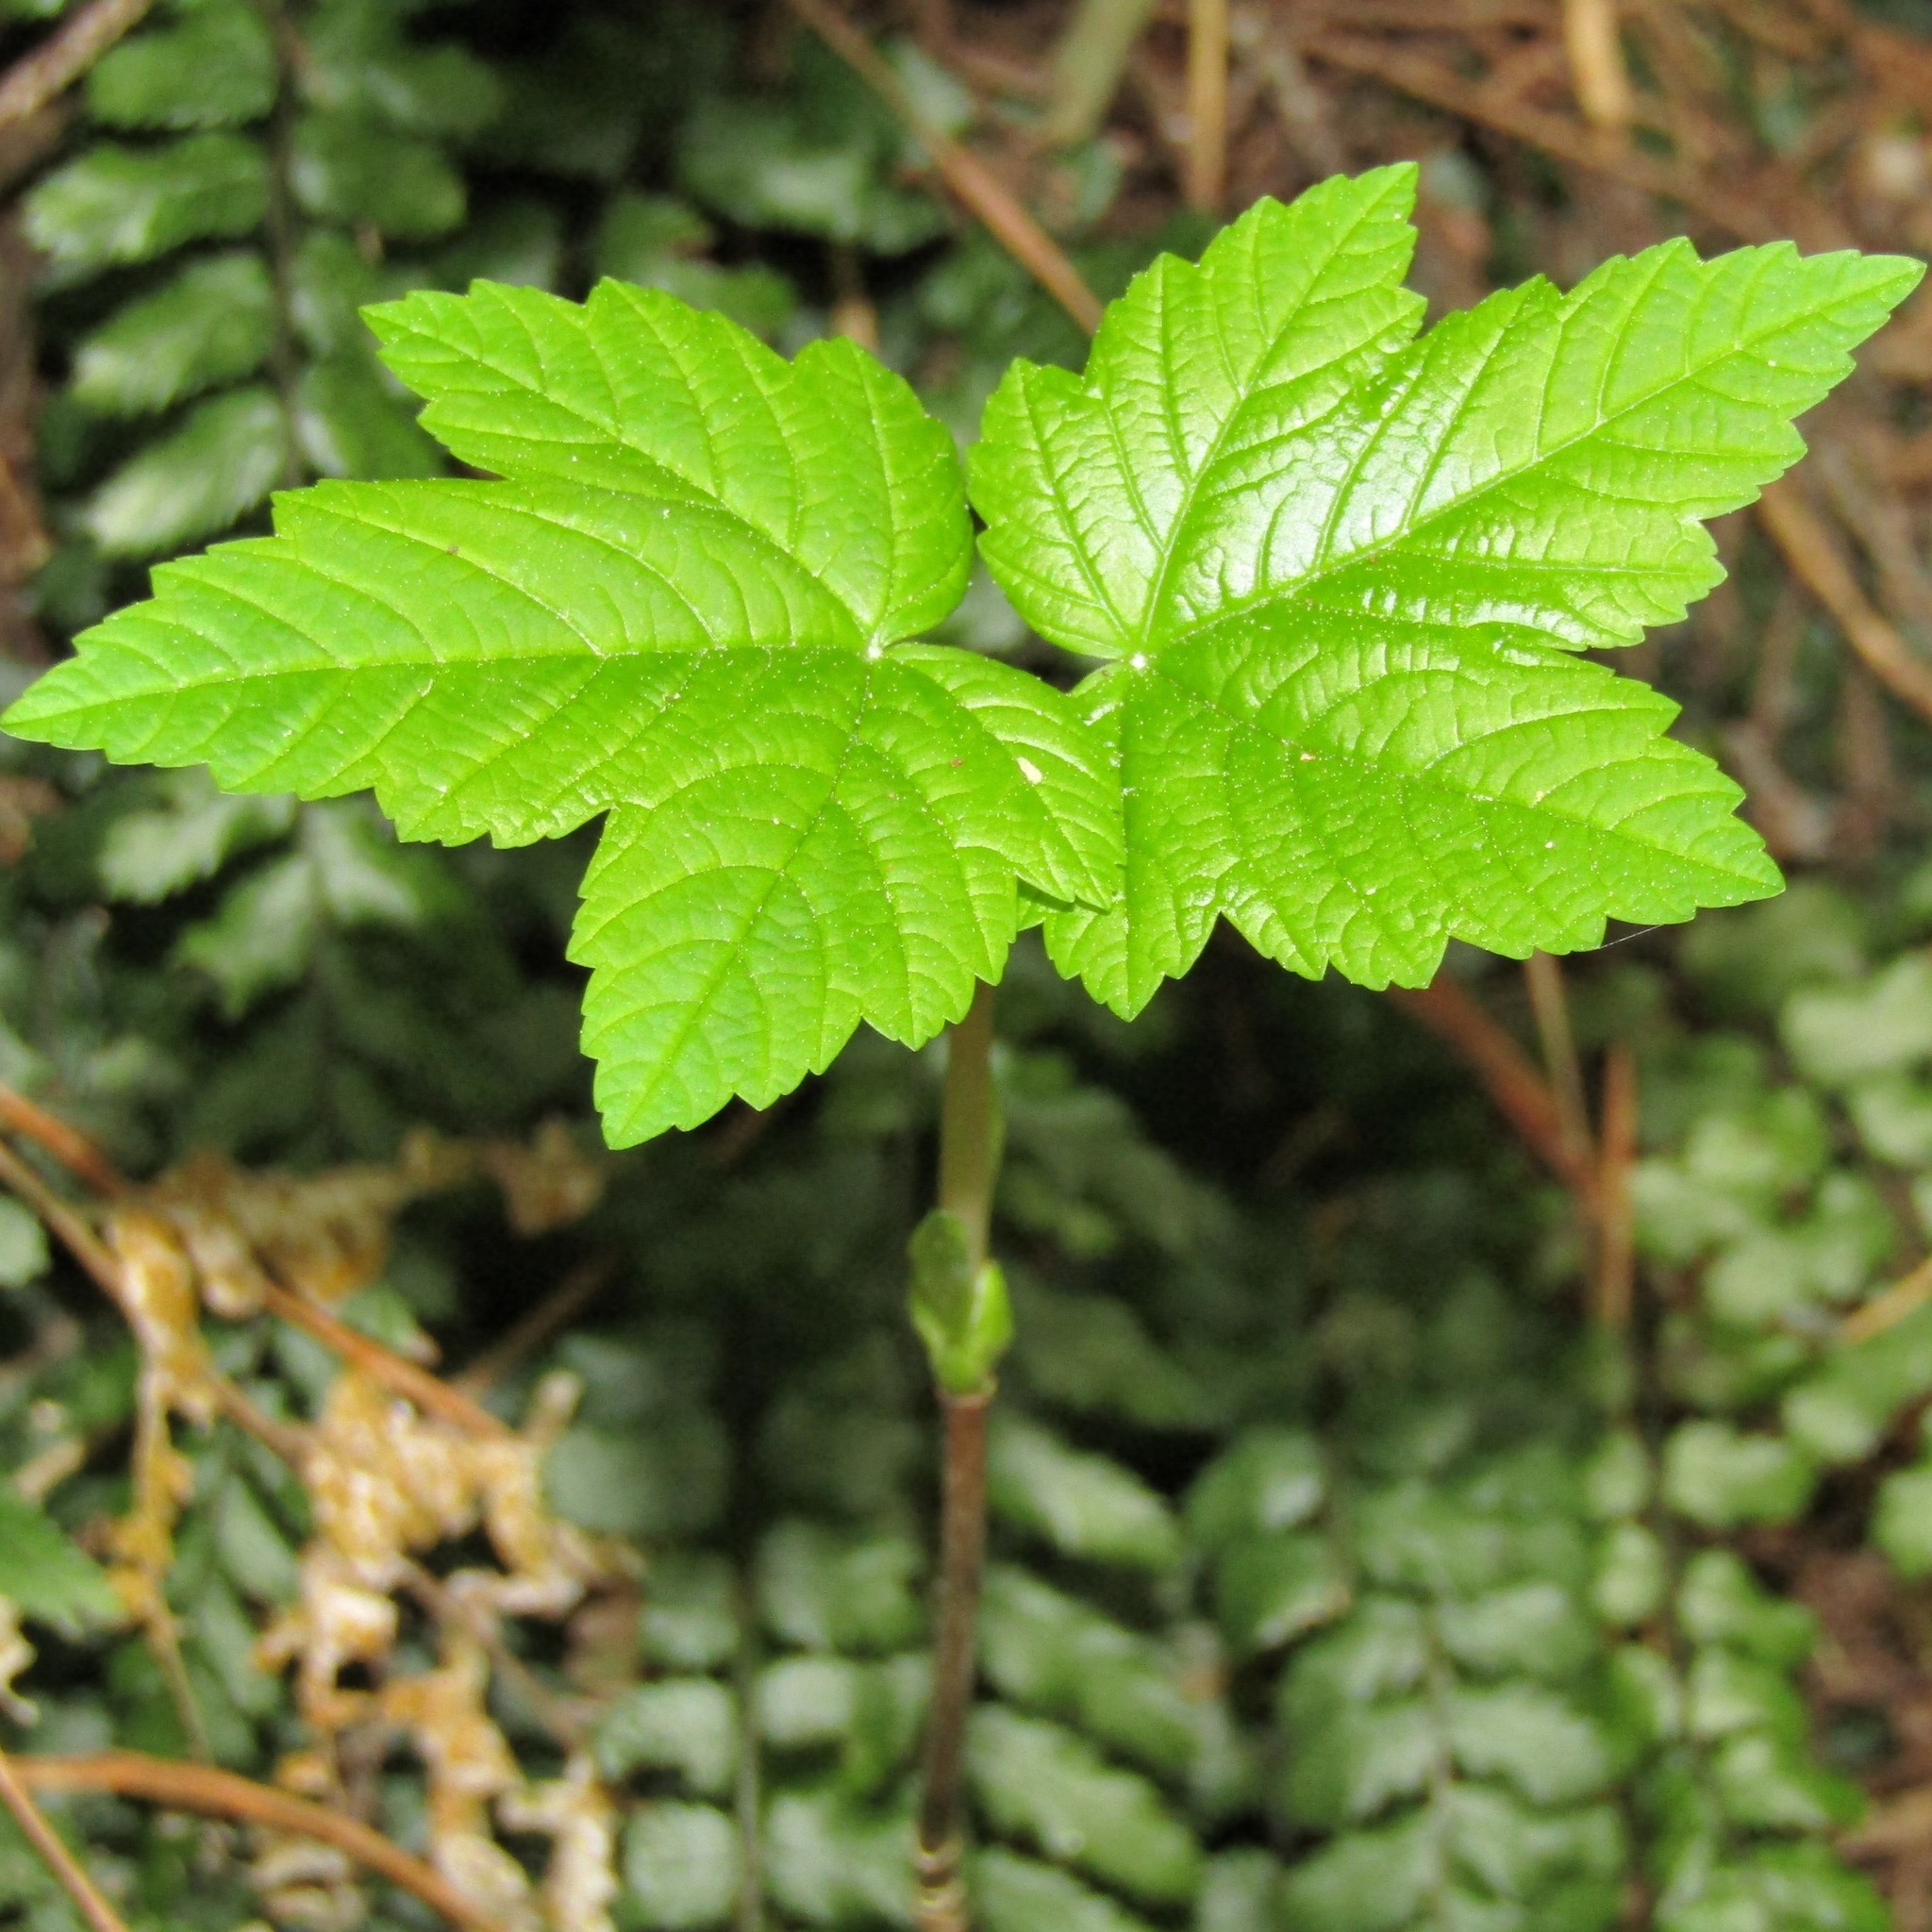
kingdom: Plantae
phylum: Tracheophyta
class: Magnoliopsida
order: Sapindales
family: Sapindaceae
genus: Acer
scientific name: Acer pseudoplatanus
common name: Sycamore
